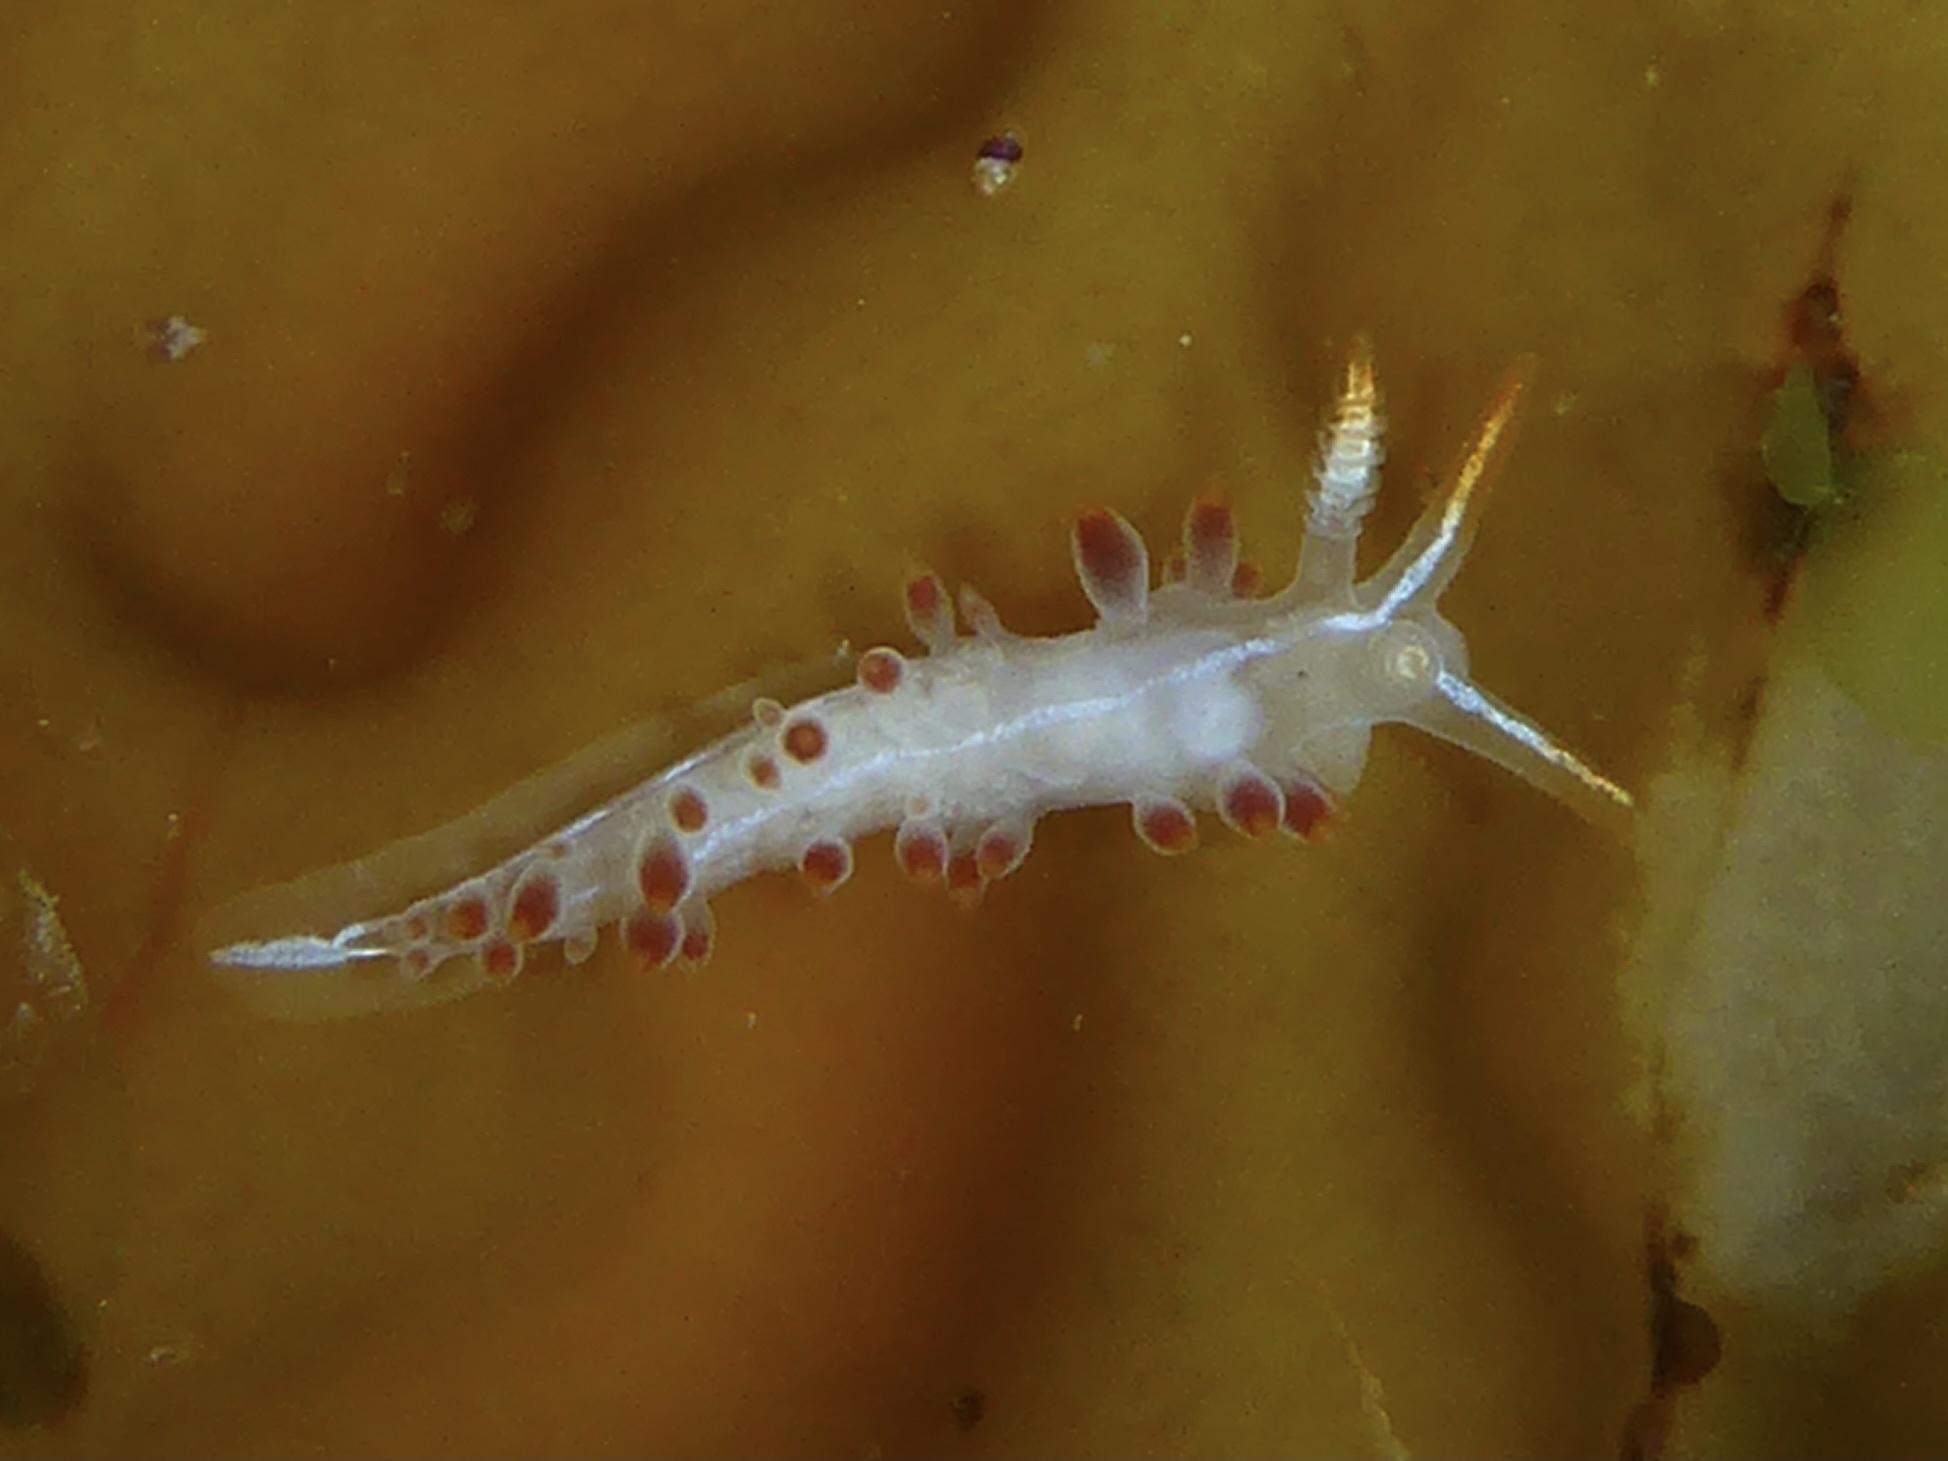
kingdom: Animalia
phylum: Mollusca
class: Gastropoda
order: Nudibranchia
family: Coryphellidae
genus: Coryphella
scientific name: Coryphella trilineata
